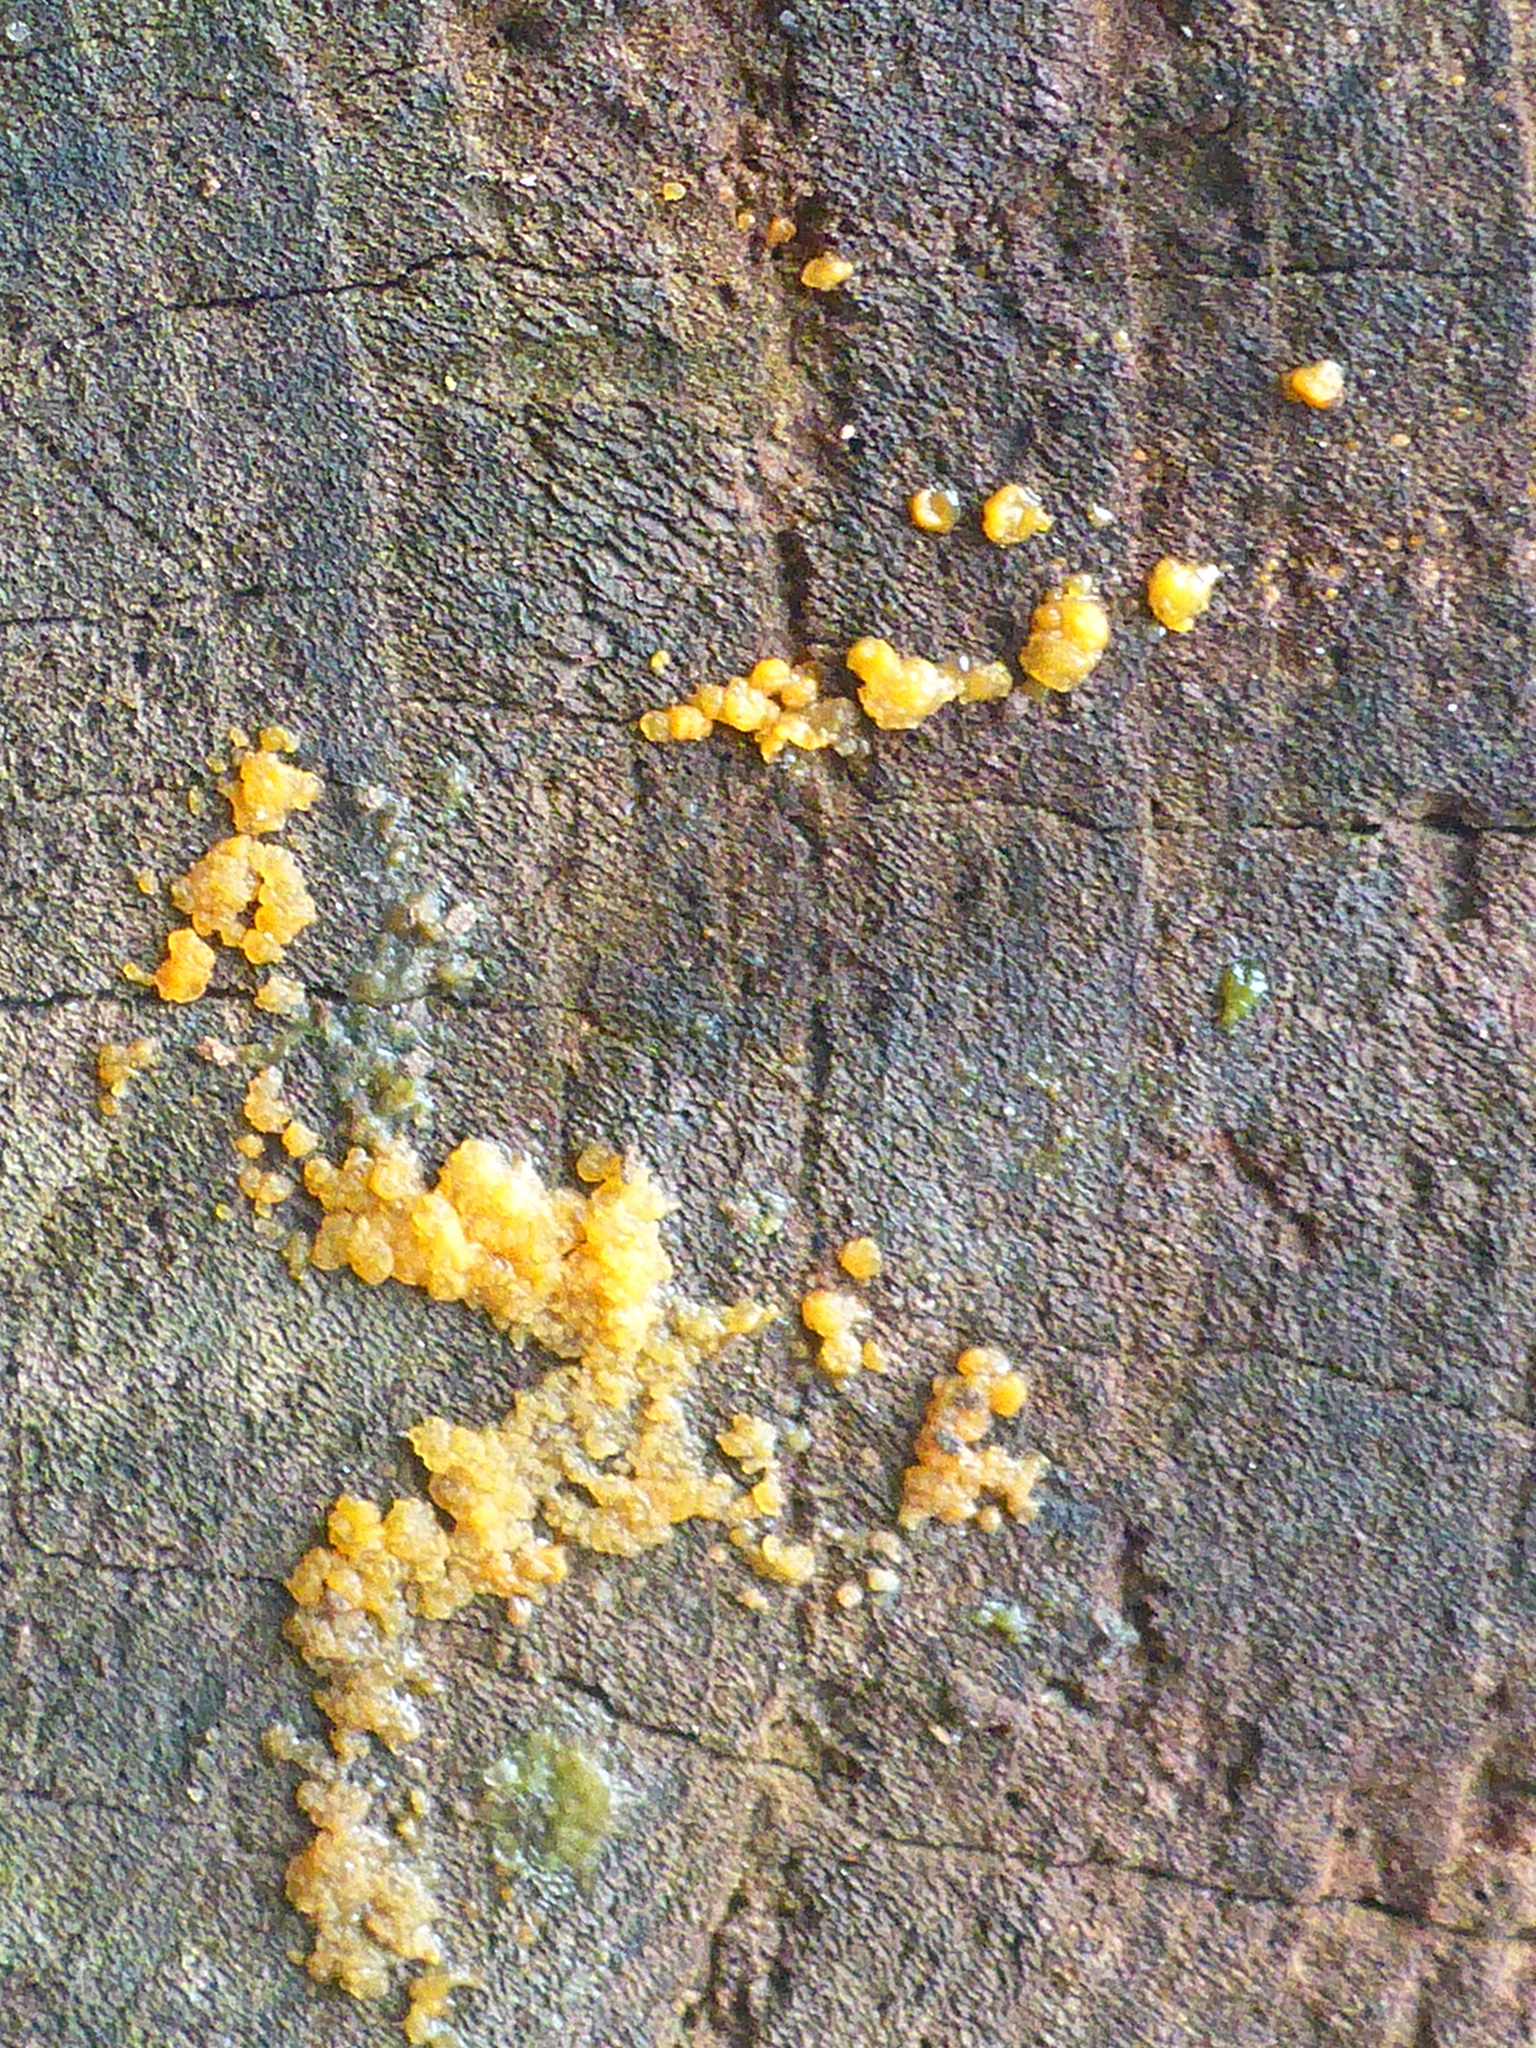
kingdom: Fungi
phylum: Basidiomycota
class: Dacrymycetes
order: Dacrymycetales
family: Dacrymycetaceae
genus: Dacrymyces
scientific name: Dacrymyces stillatus
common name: Common jelly spot
